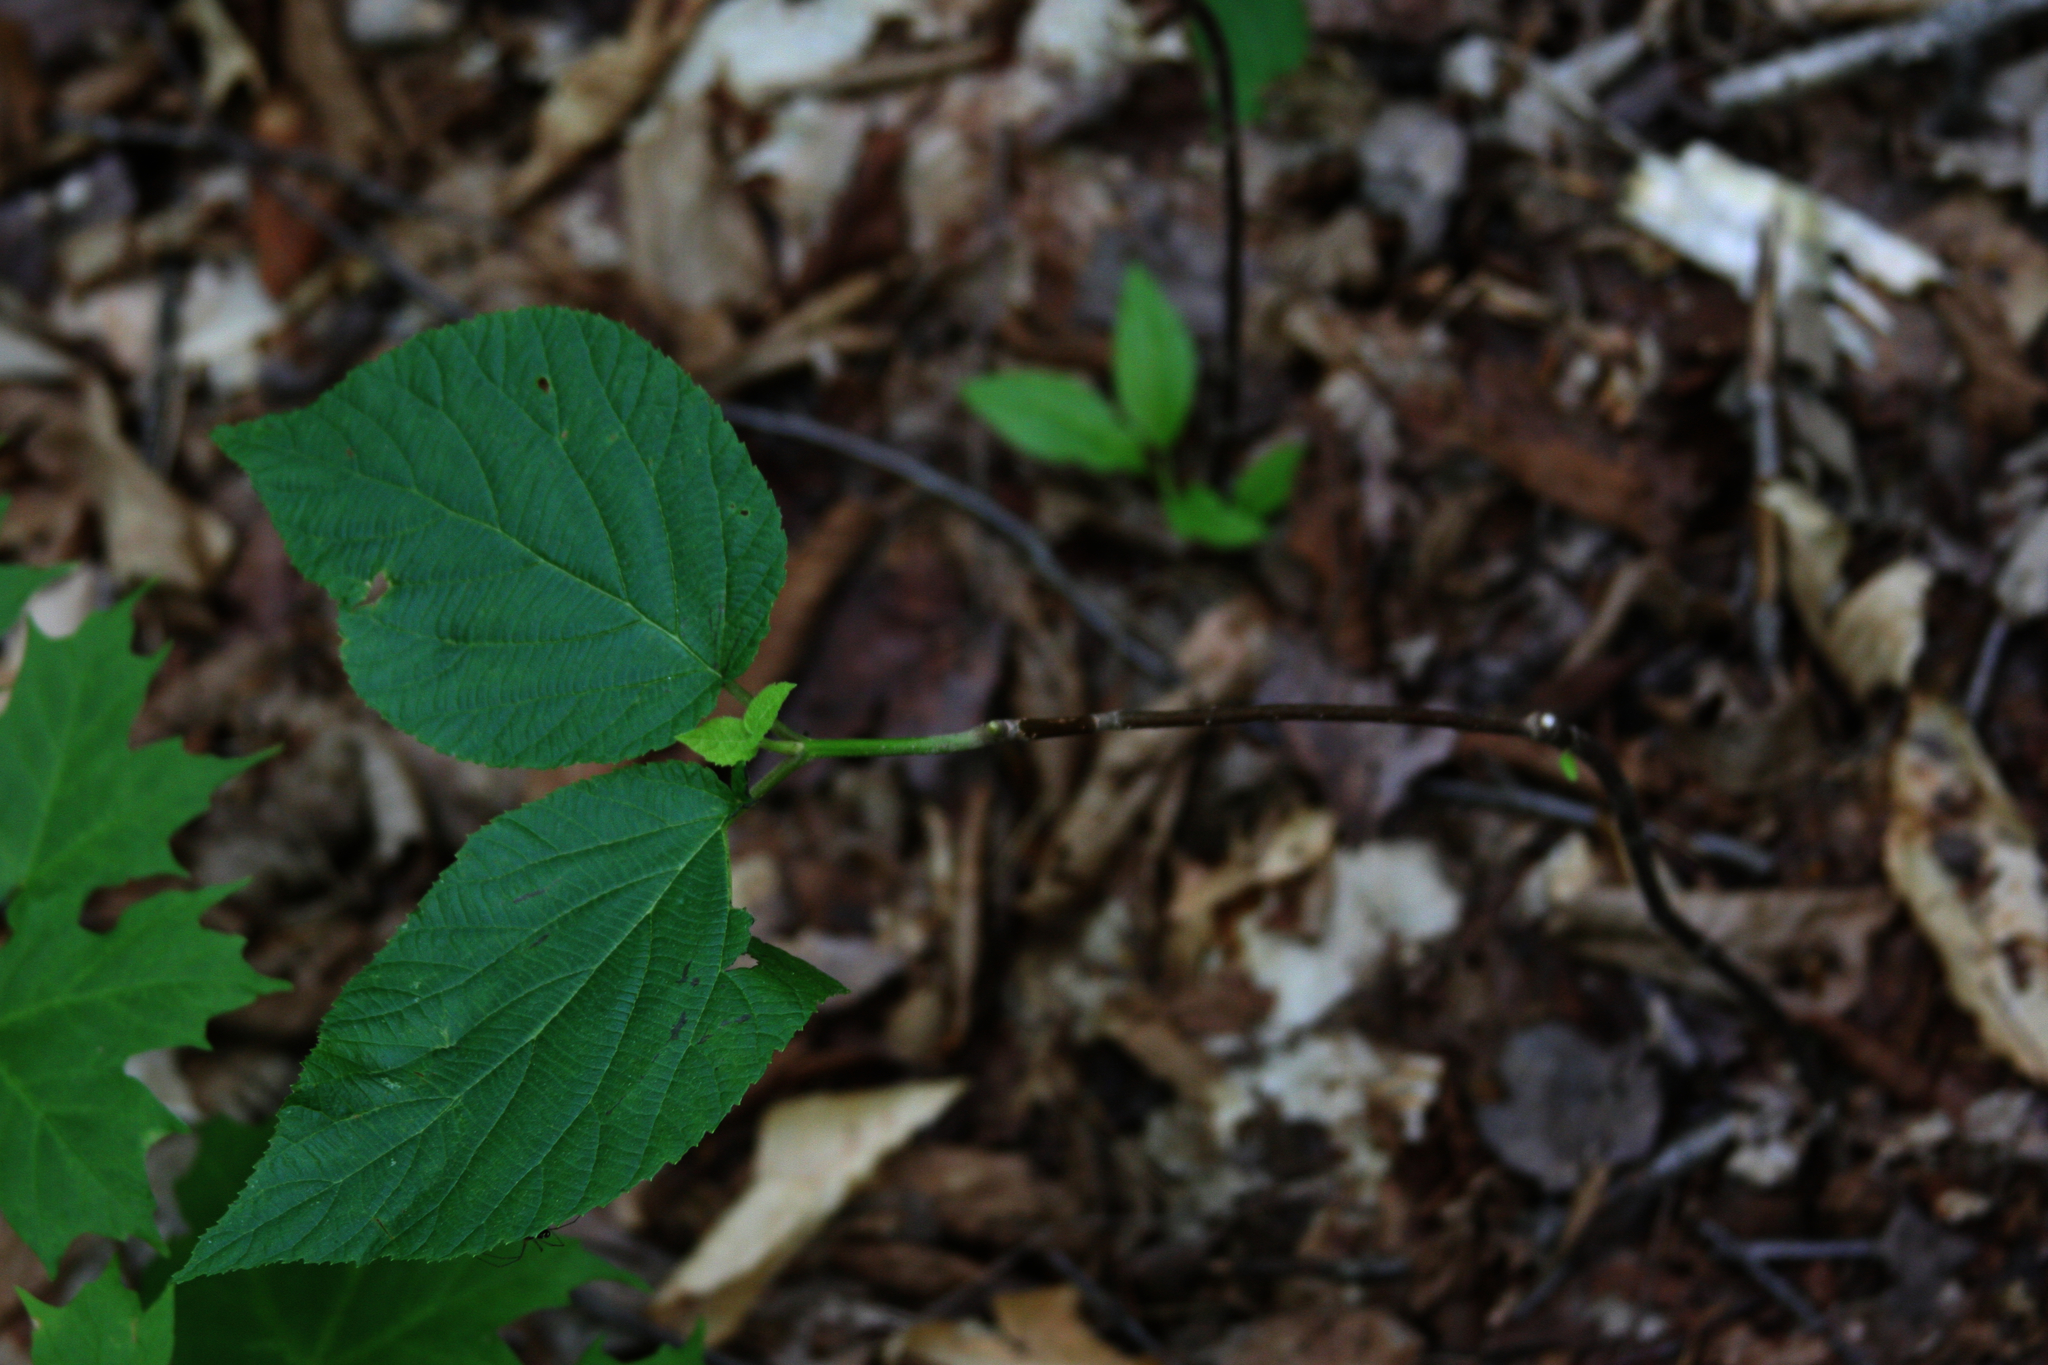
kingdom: Plantae
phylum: Tracheophyta
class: Magnoliopsida
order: Dipsacales
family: Viburnaceae
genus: Viburnum
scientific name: Viburnum lantanoides
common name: Hobblebush
